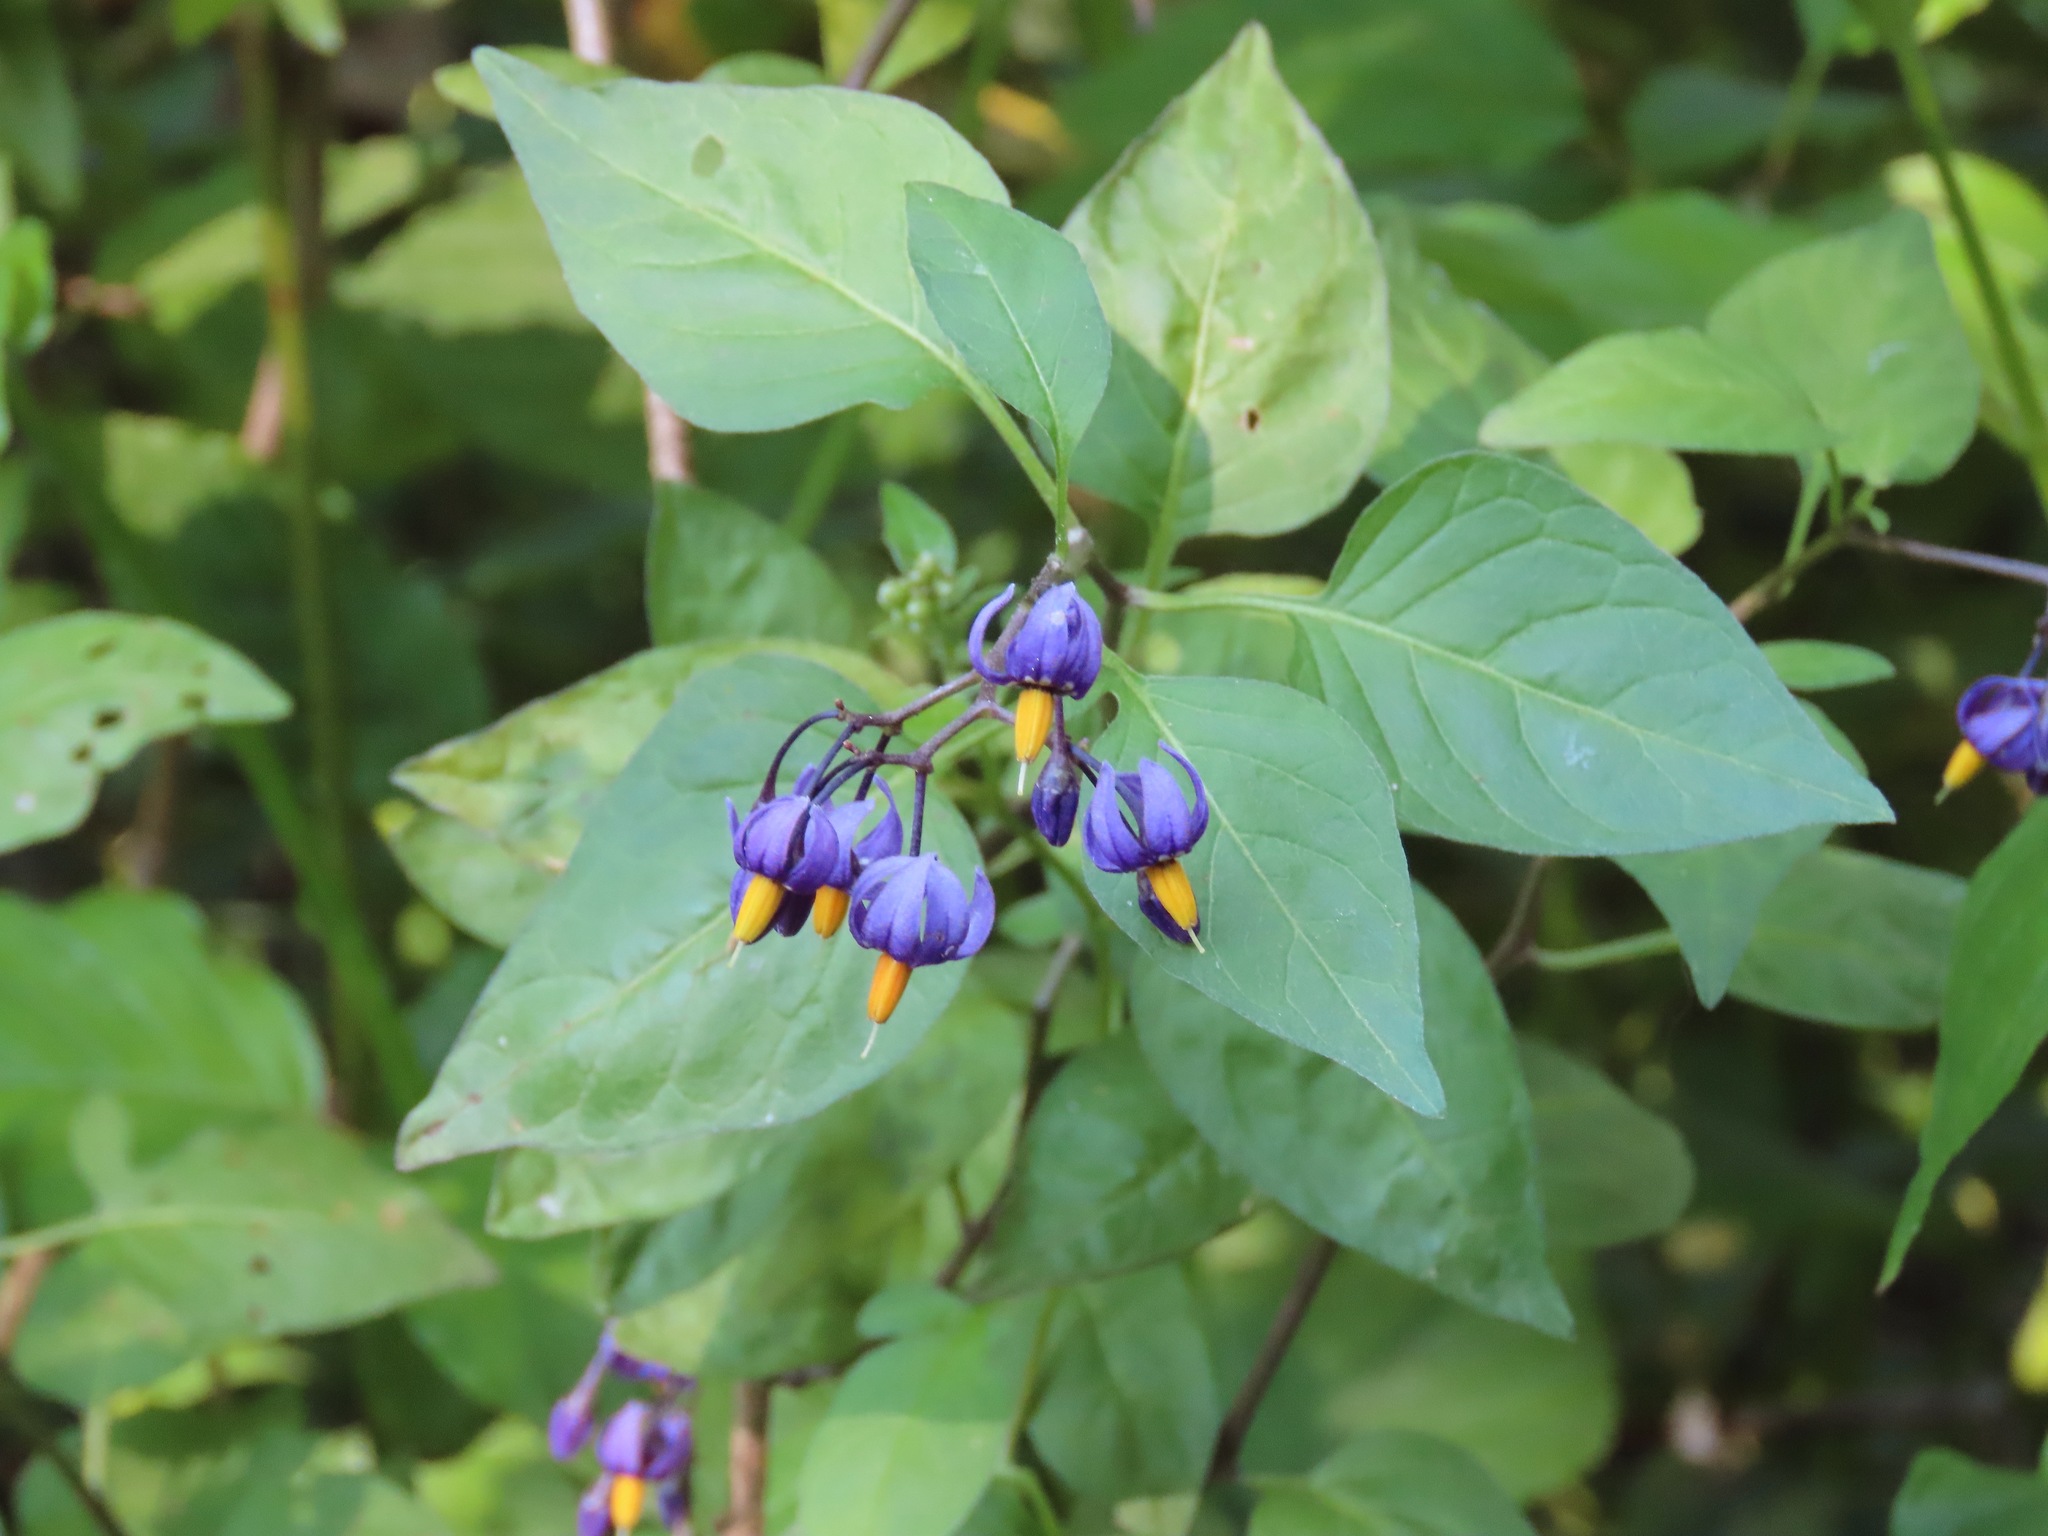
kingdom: Plantae
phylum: Tracheophyta
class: Magnoliopsida
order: Solanales
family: Solanaceae
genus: Solanum
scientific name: Solanum dulcamara
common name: Climbing nightshade
